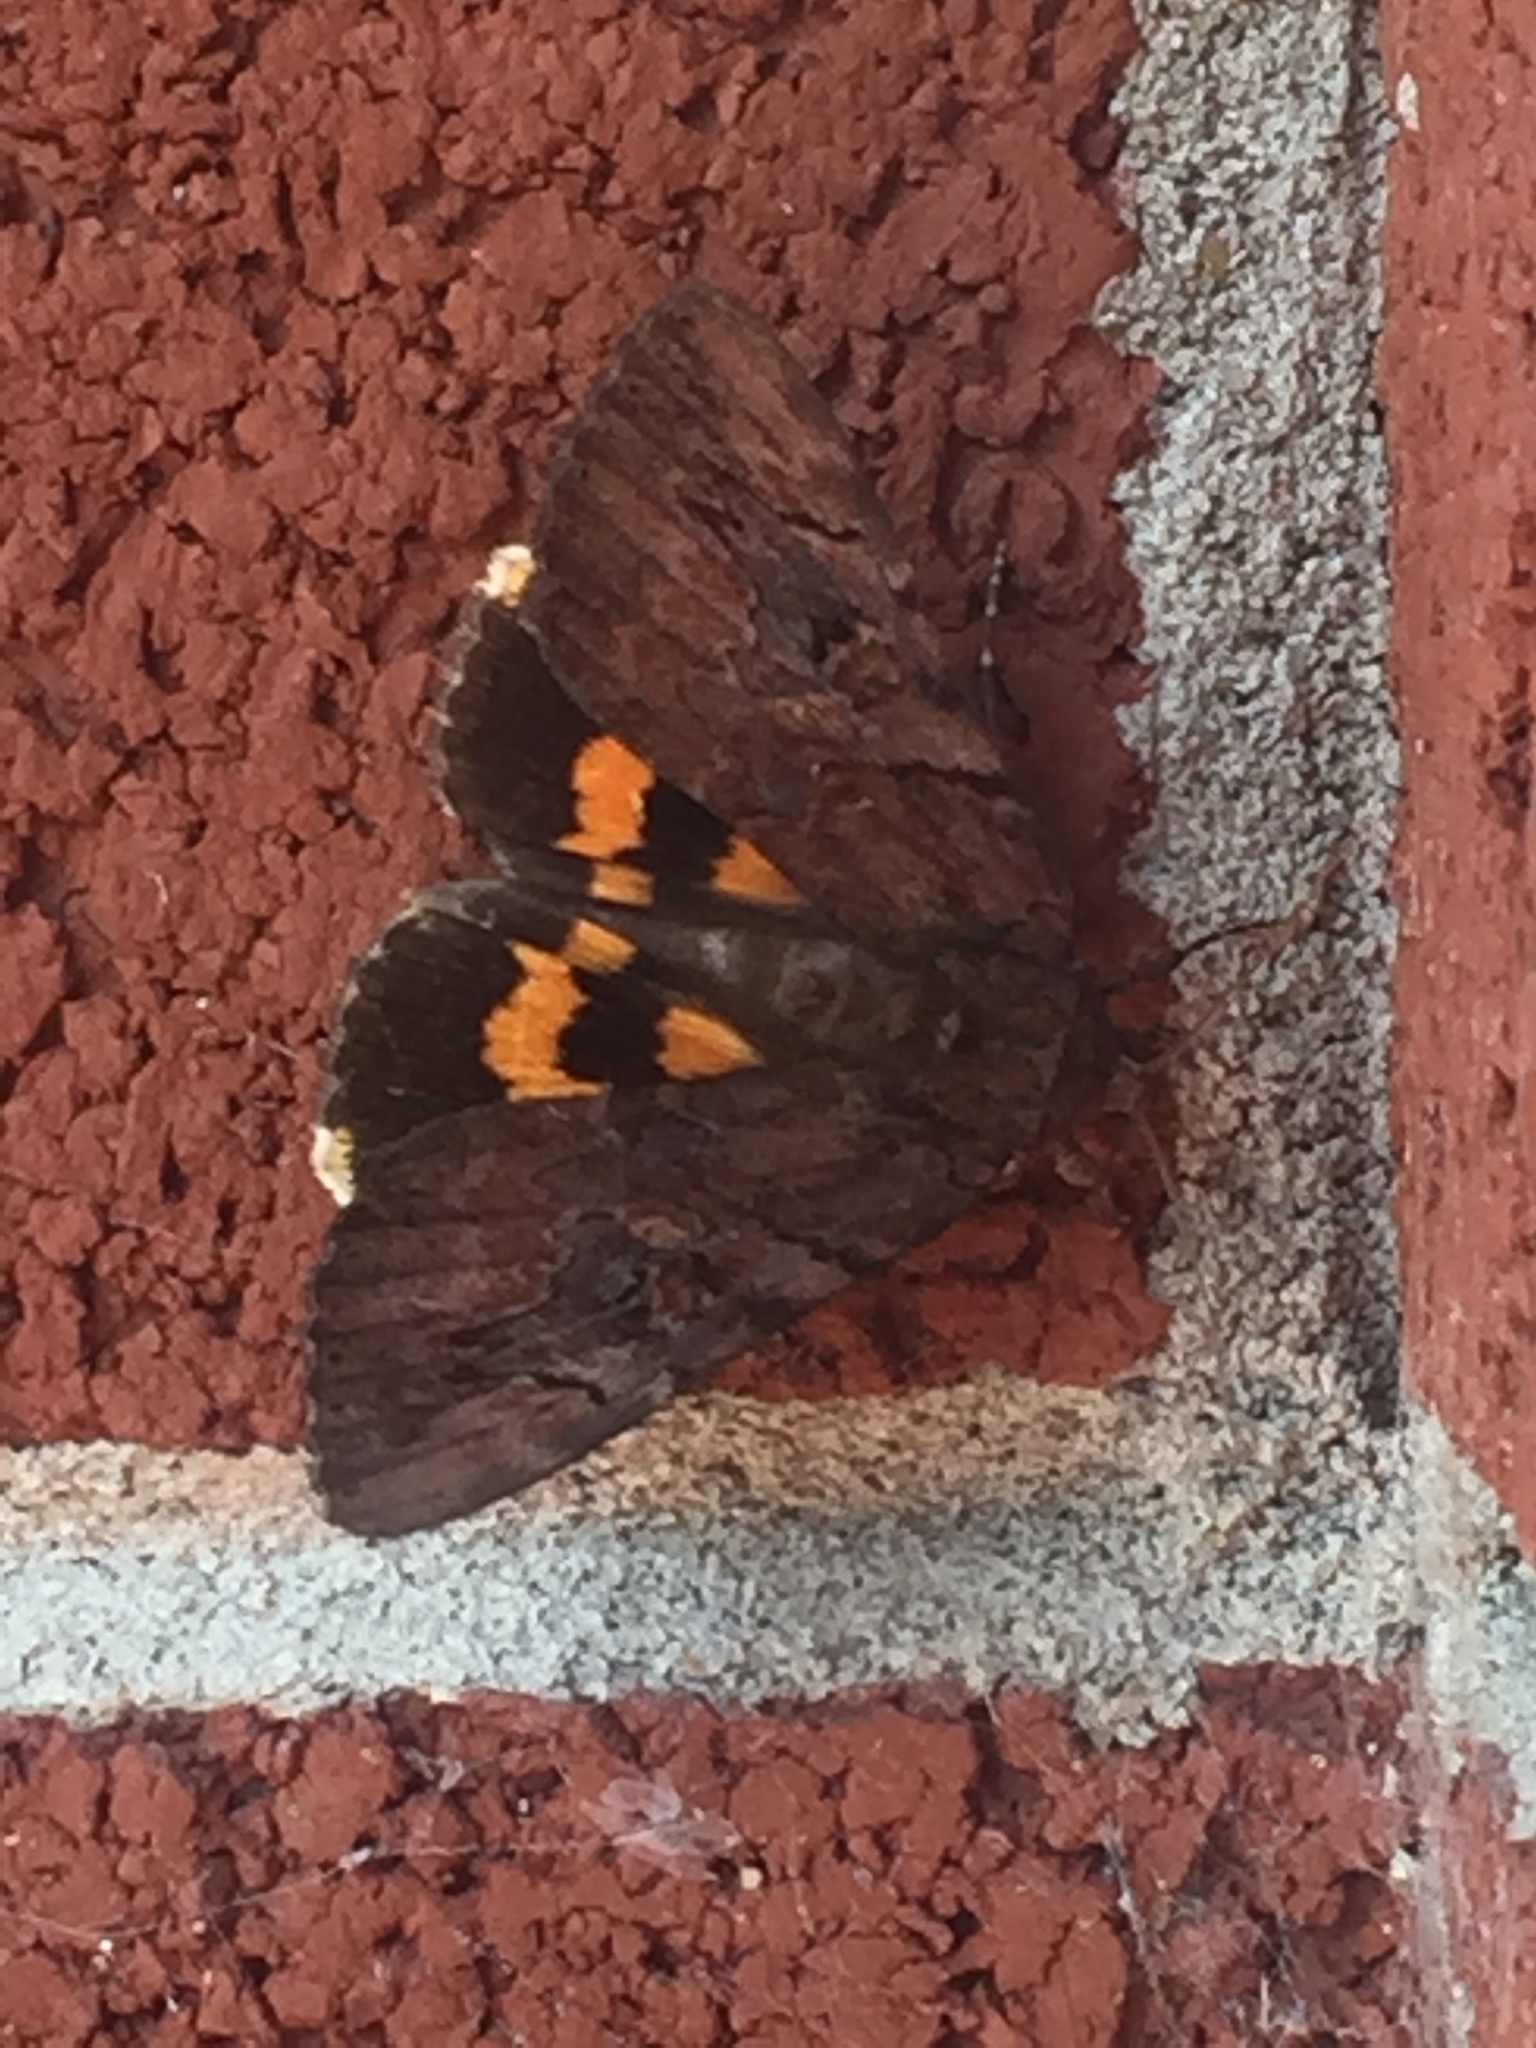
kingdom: Animalia
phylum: Arthropoda
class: Insecta
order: Lepidoptera
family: Erebidae
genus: Catocala
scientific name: Catocala muliercula
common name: The little wife underwing
